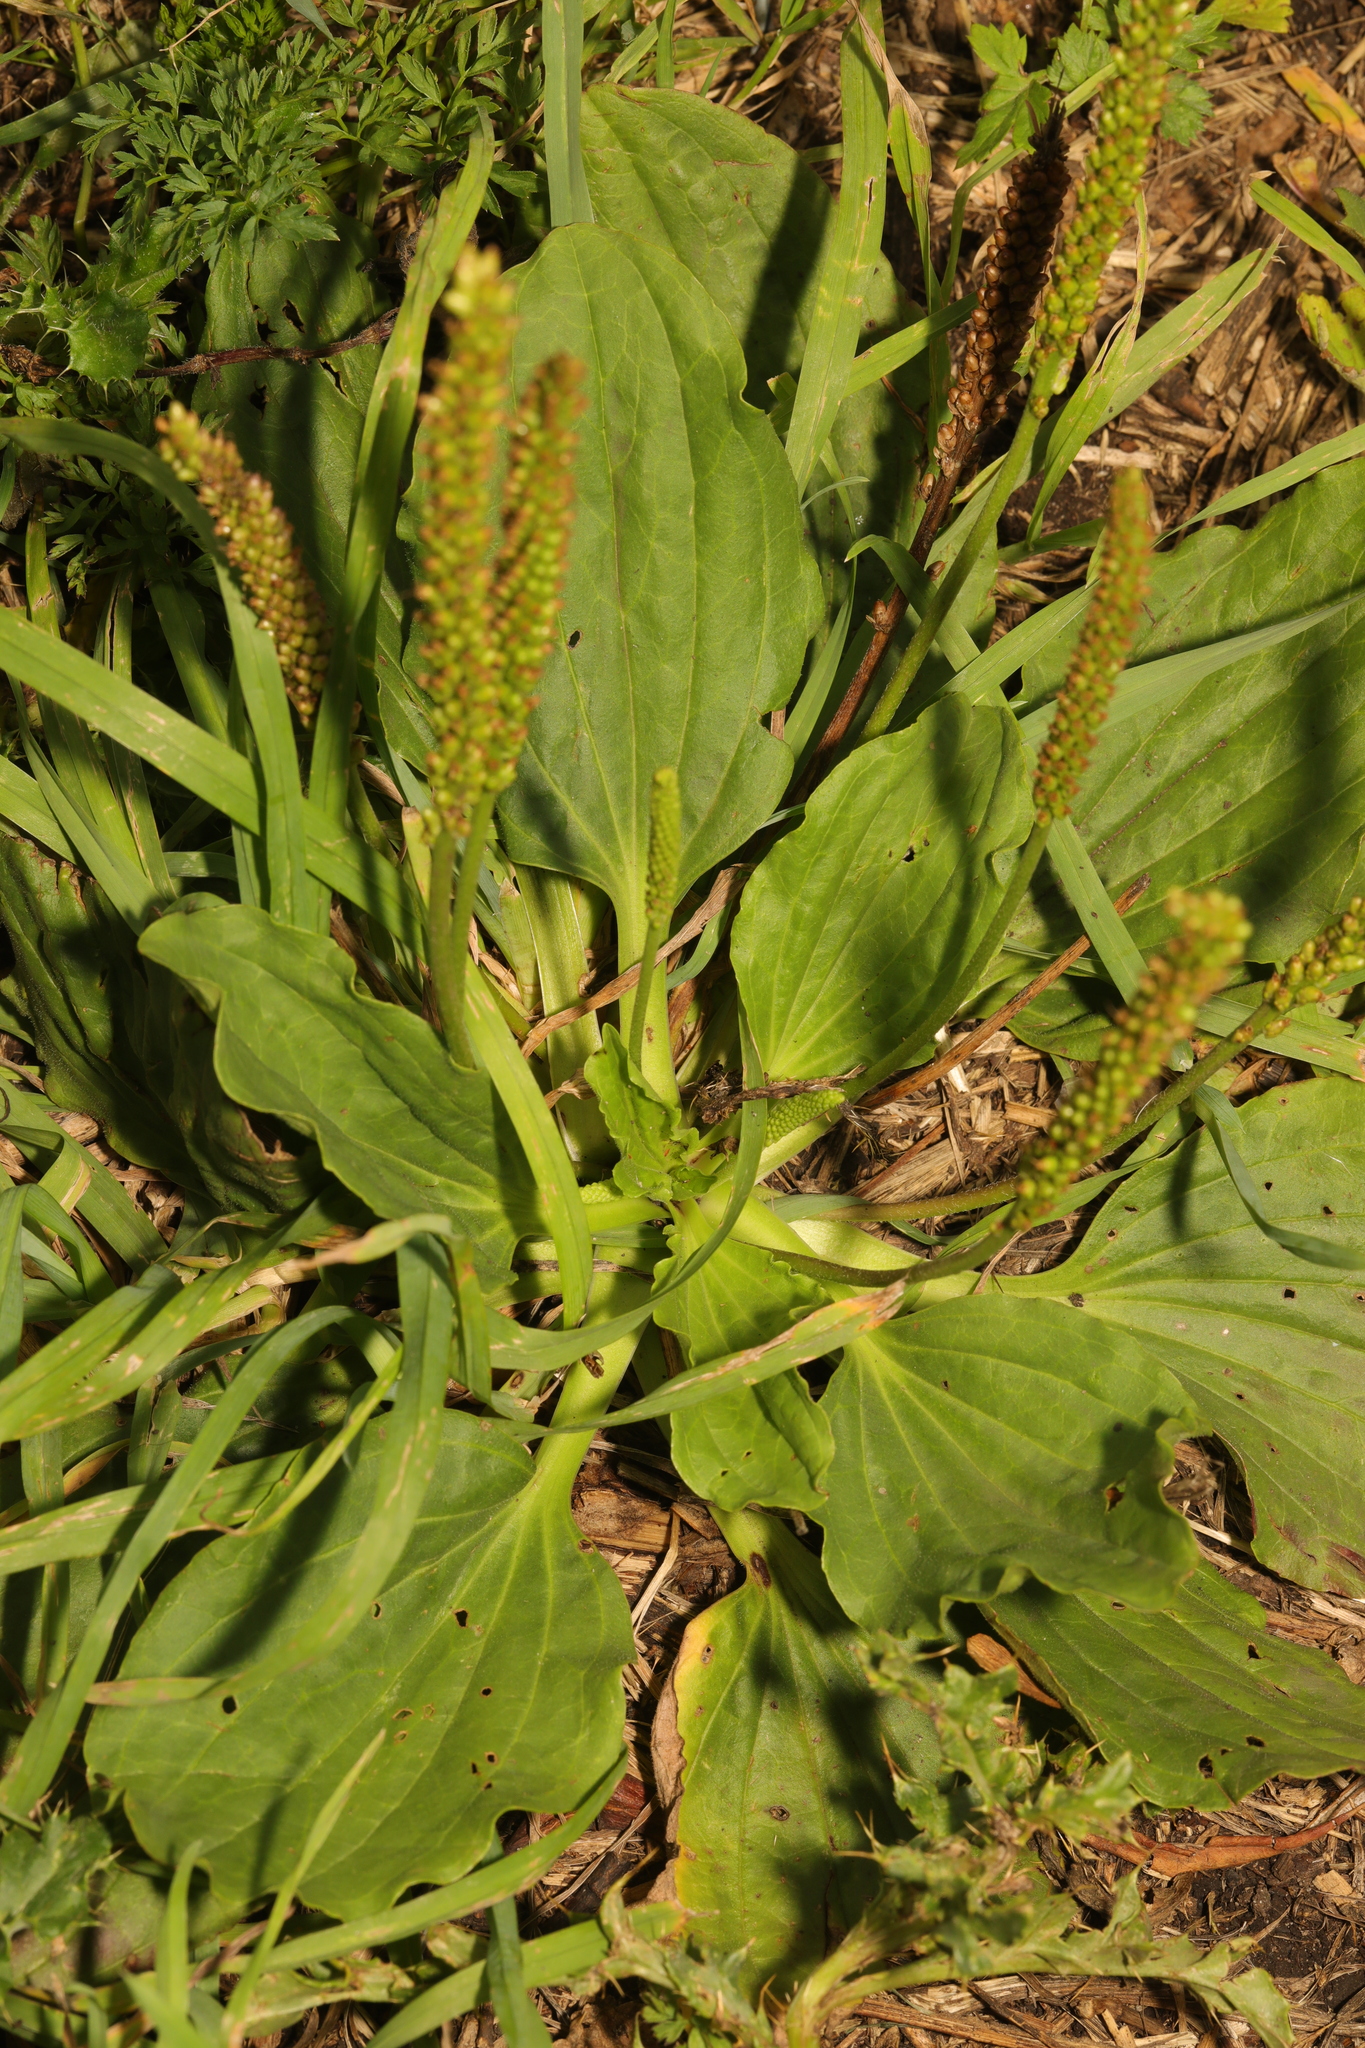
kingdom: Plantae
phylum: Tracheophyta
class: Magnoliopsida
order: Lamiales
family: Plantaginaceae
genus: Plantago
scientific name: Plantago major
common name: Common plantain
